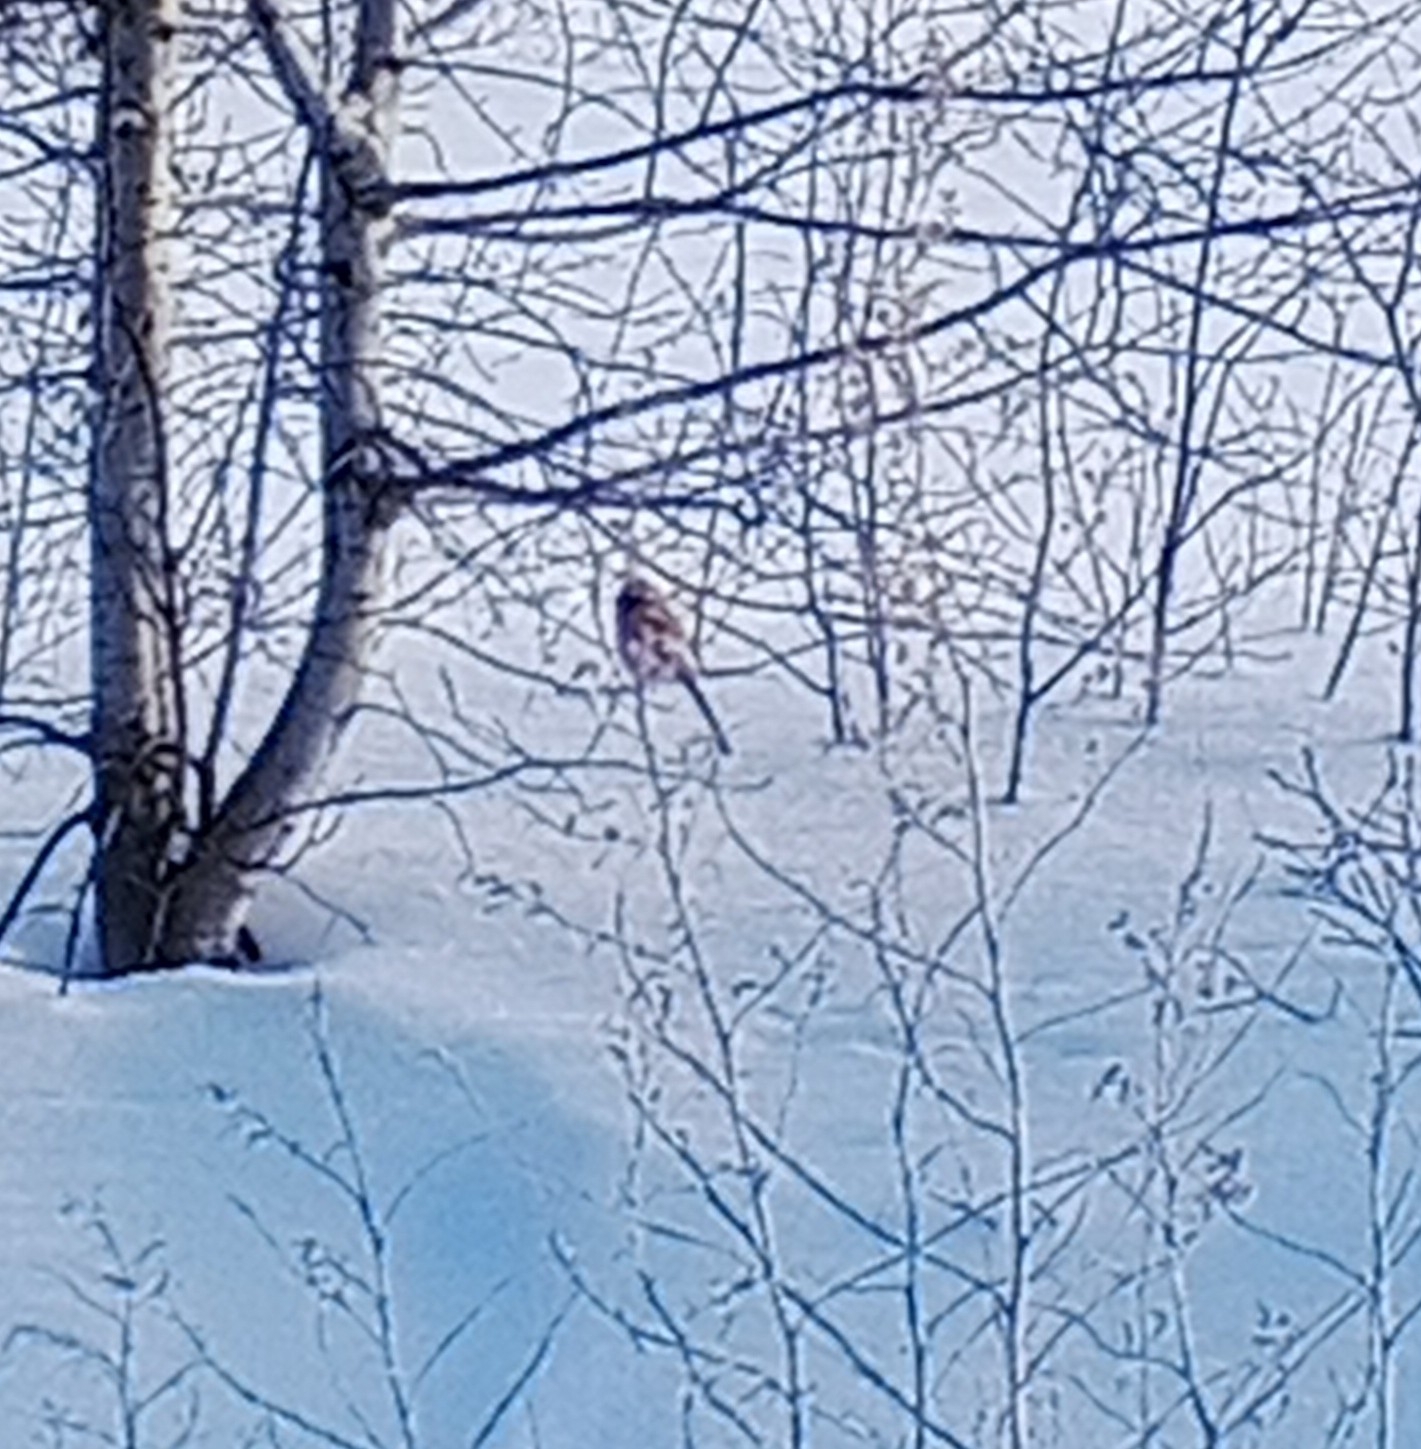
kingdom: Animalia
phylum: Chordata
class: Aves
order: Passeriformes
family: Fringillidae
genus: Carpodacus
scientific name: Carpodacus sibiricus
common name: Long-tailed rosefinch
